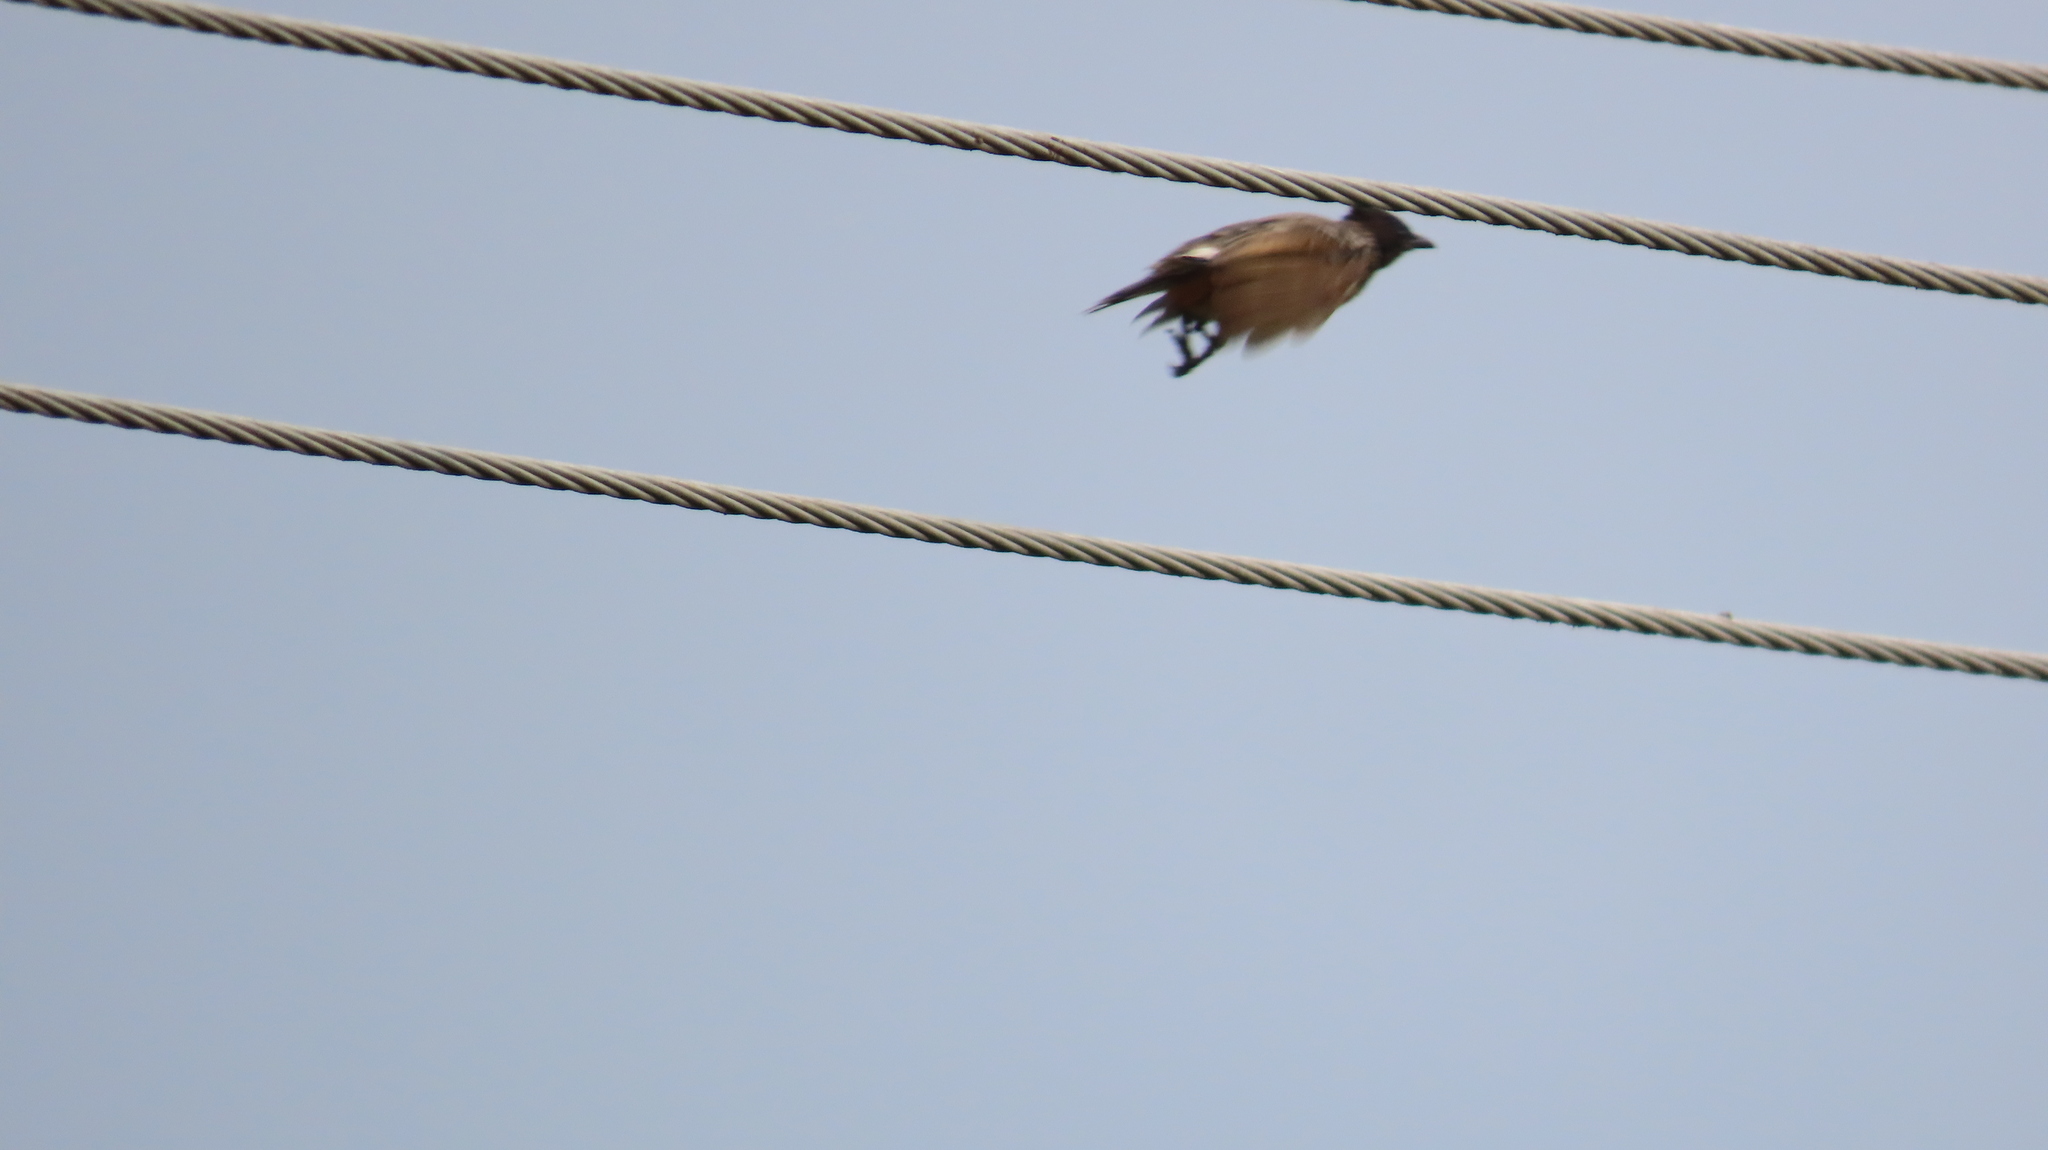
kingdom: Animalia
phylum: Chordata
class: Aves
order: Passeriformes
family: Pycnonotidae
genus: Pycnonotus
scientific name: Pycnonotus cafer
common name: Red-vented bulbul
